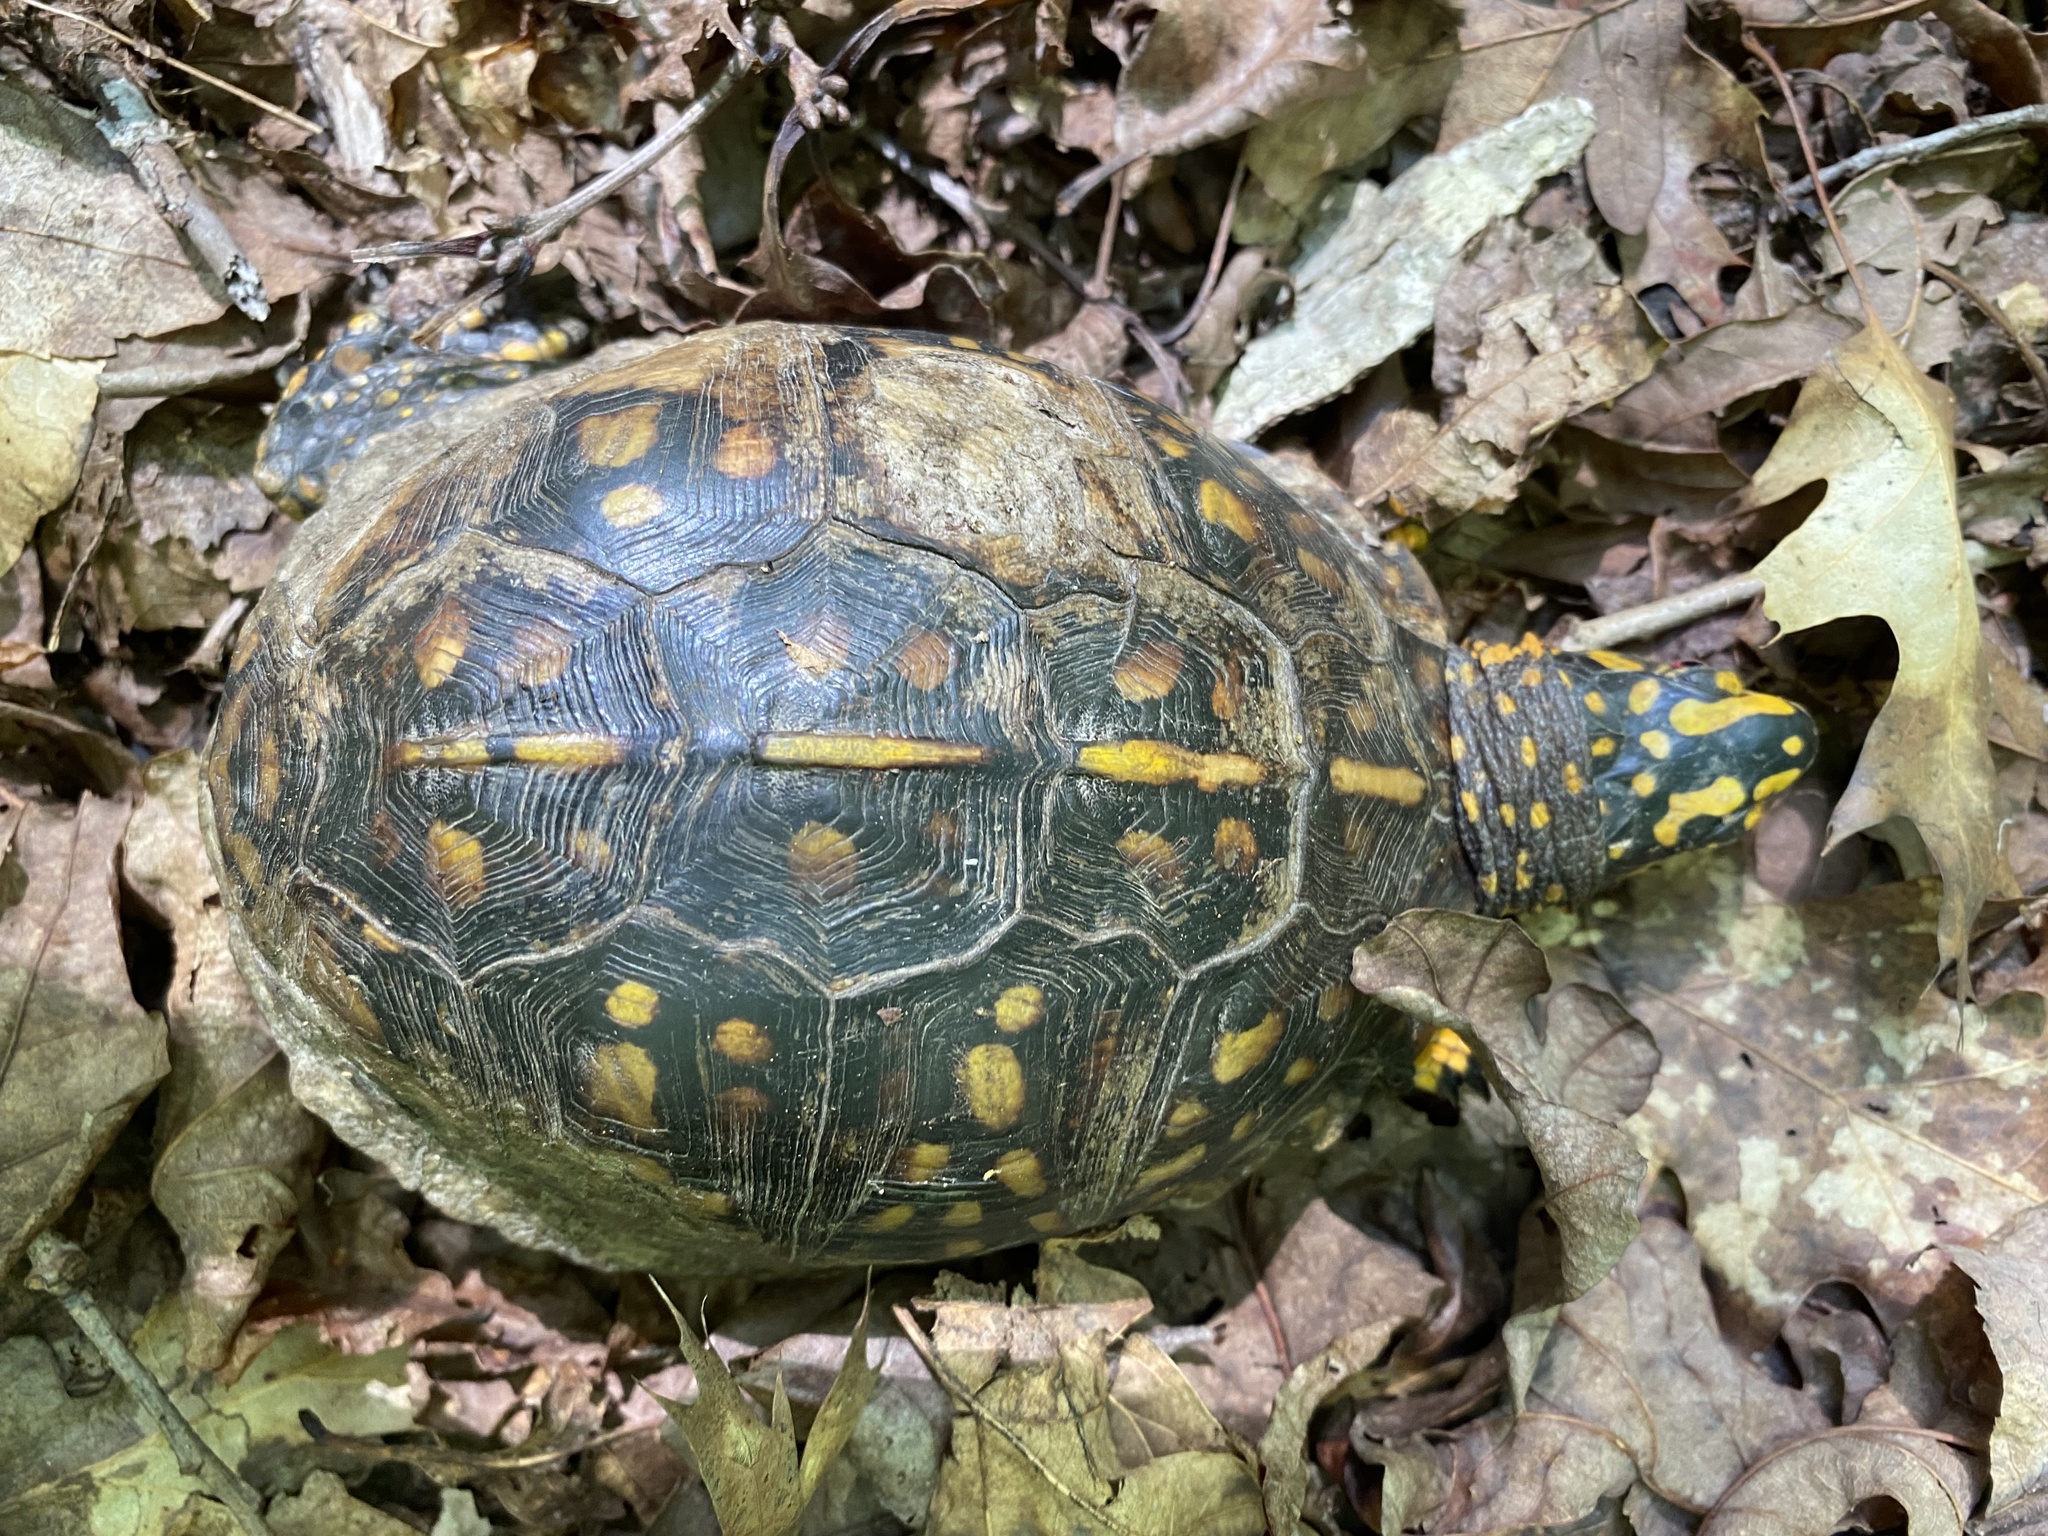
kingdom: Animalia
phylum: Chordata
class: Testudines
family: Emydidae
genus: Terrapene
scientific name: Terrapene carolina
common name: Common box turtle
